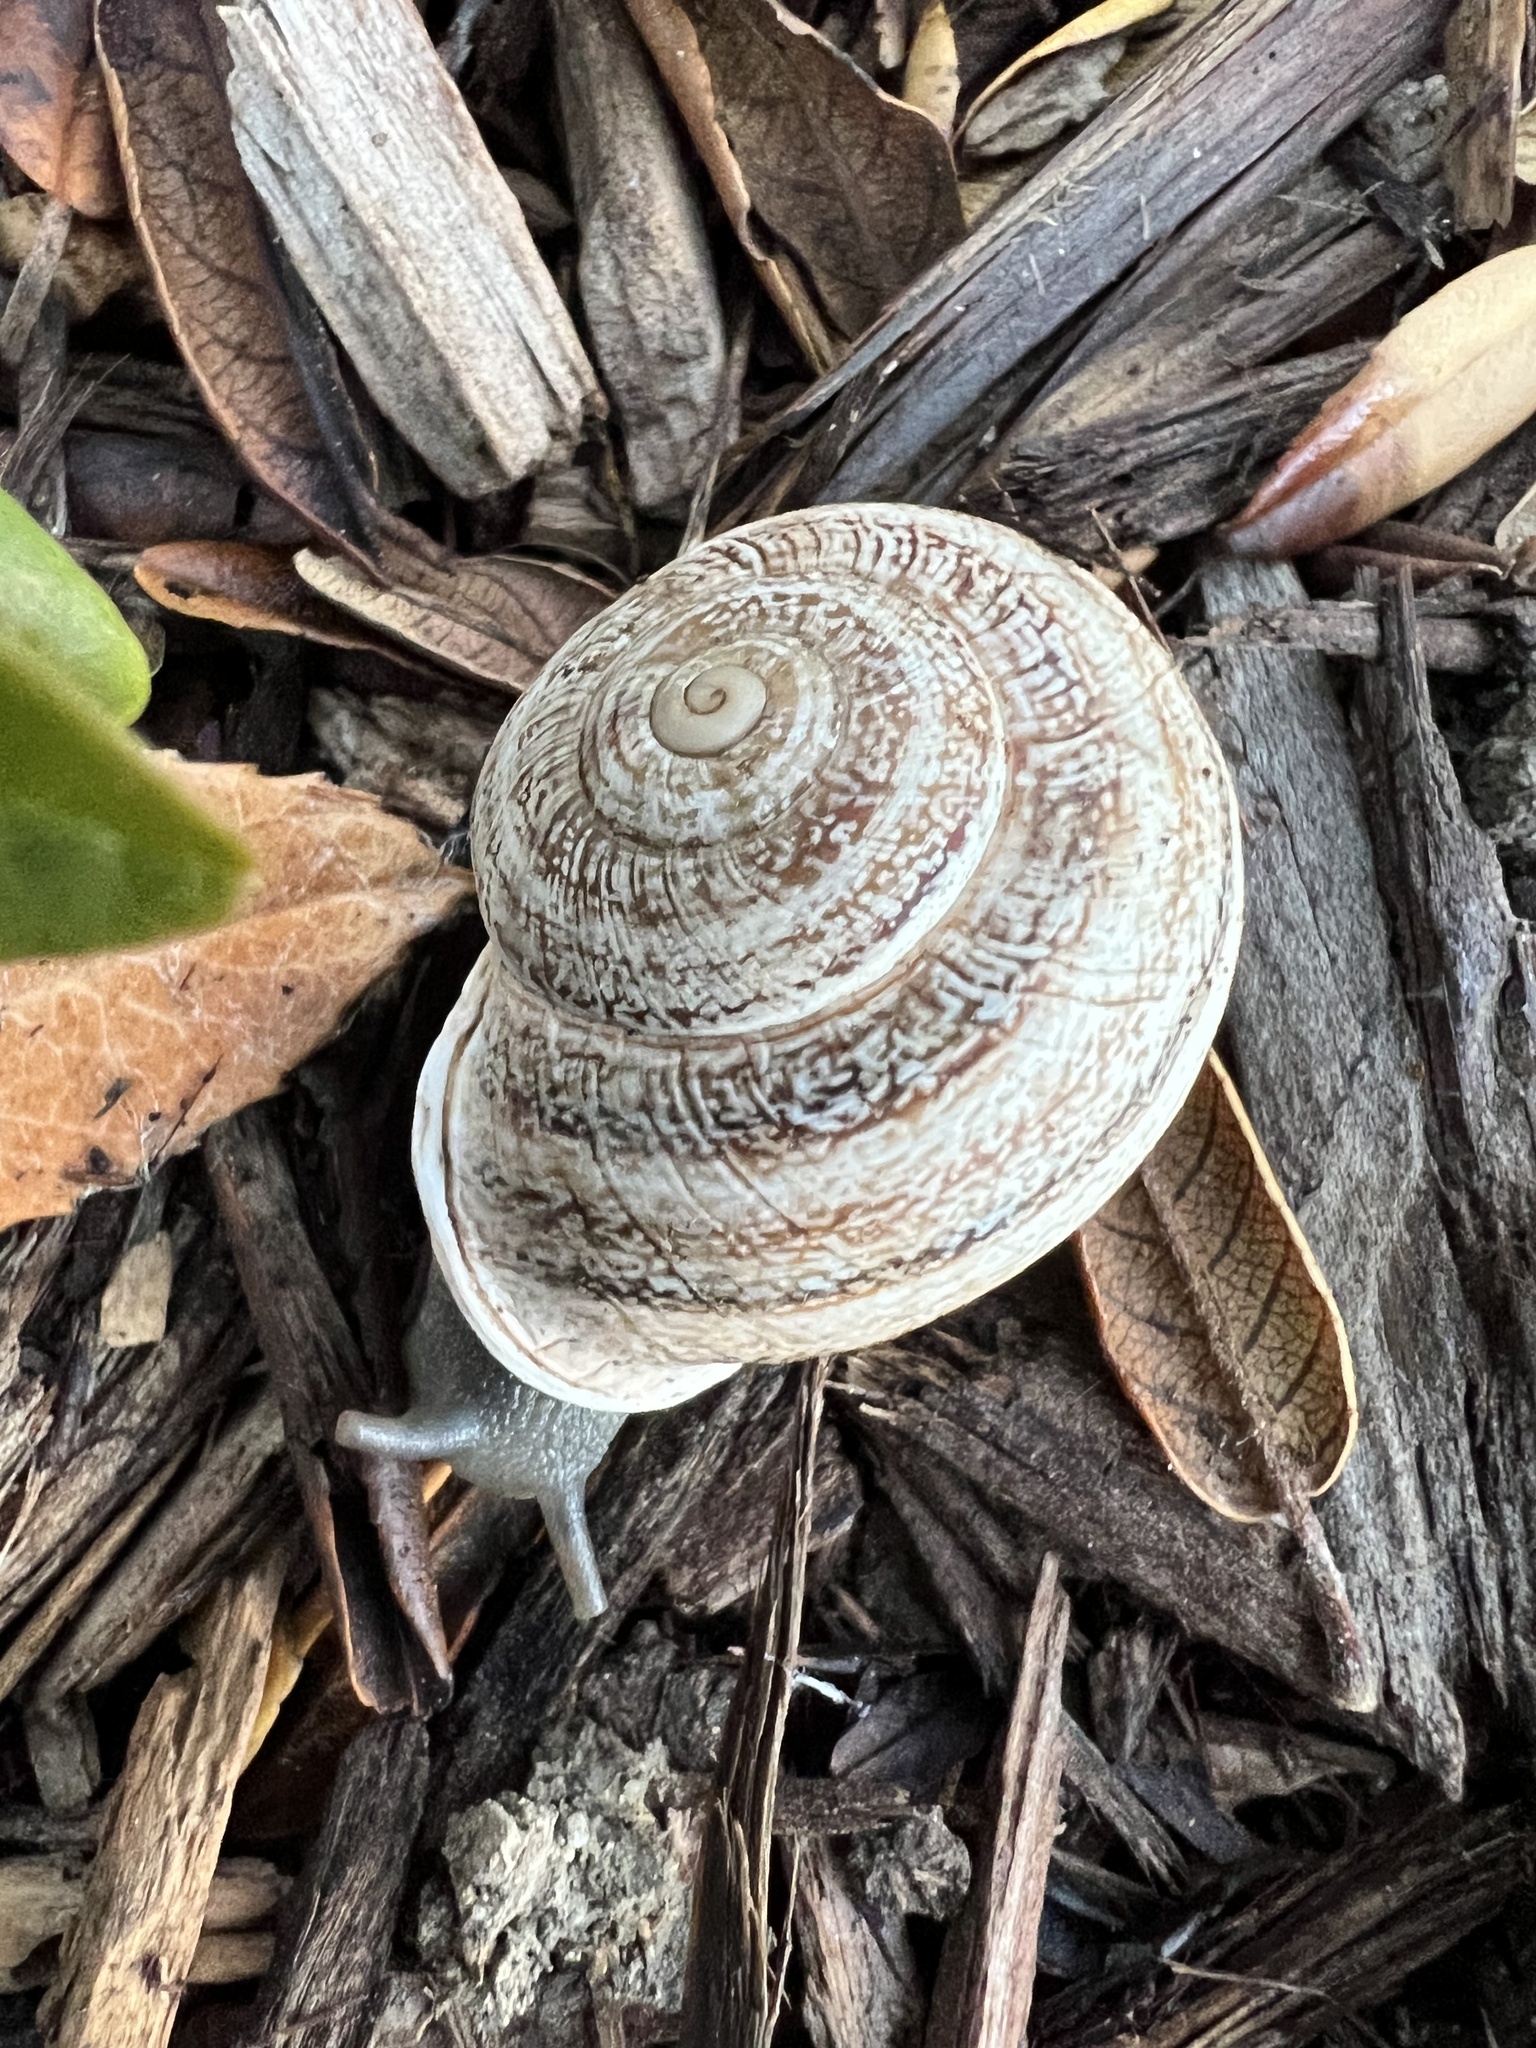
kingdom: Animalia
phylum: Mollusca
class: Gastropoda
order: Stylommatophora
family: Helicidae
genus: Otala
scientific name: Otala lactea
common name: Milk snail
